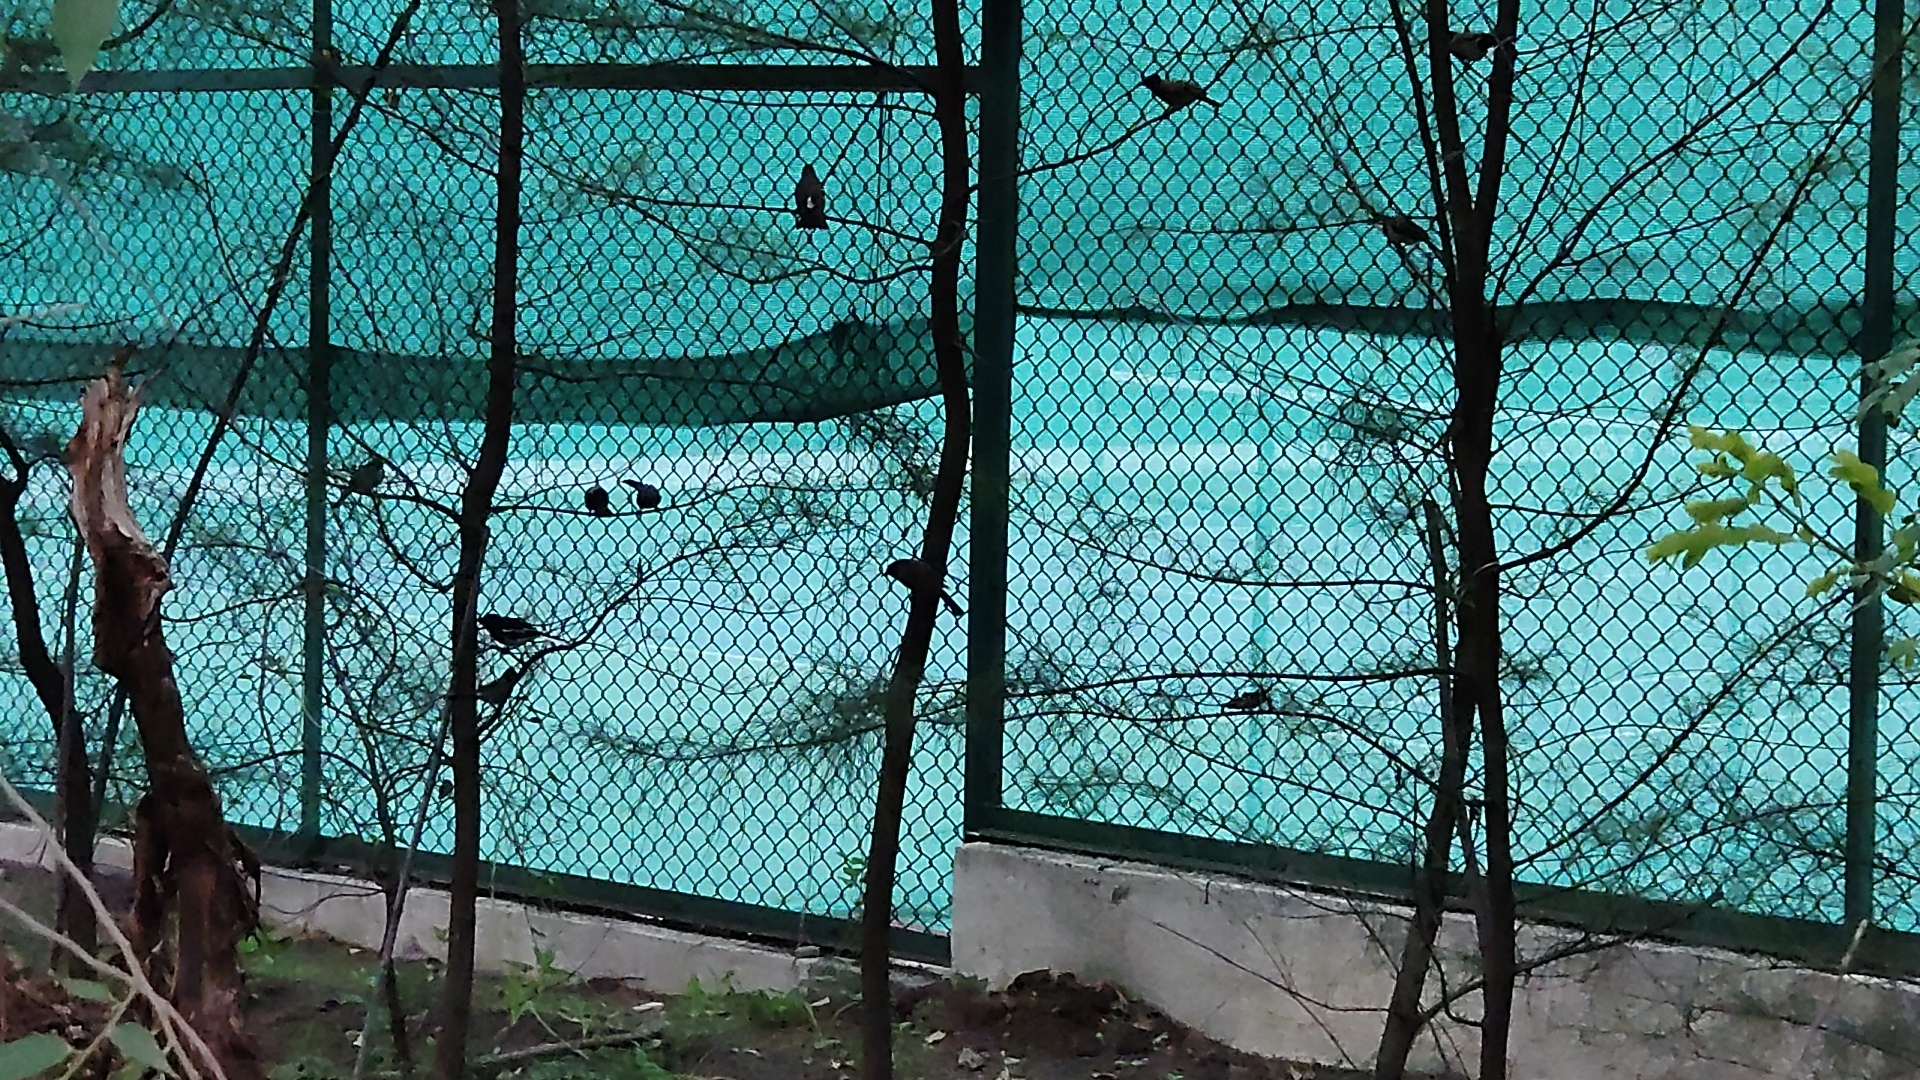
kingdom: Animalia
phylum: Chordata
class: Aves
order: Passeriformes
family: Pycnonotidae
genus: Pycnonotus
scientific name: Pycnonotus cafer
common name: Red-vented bulbul
